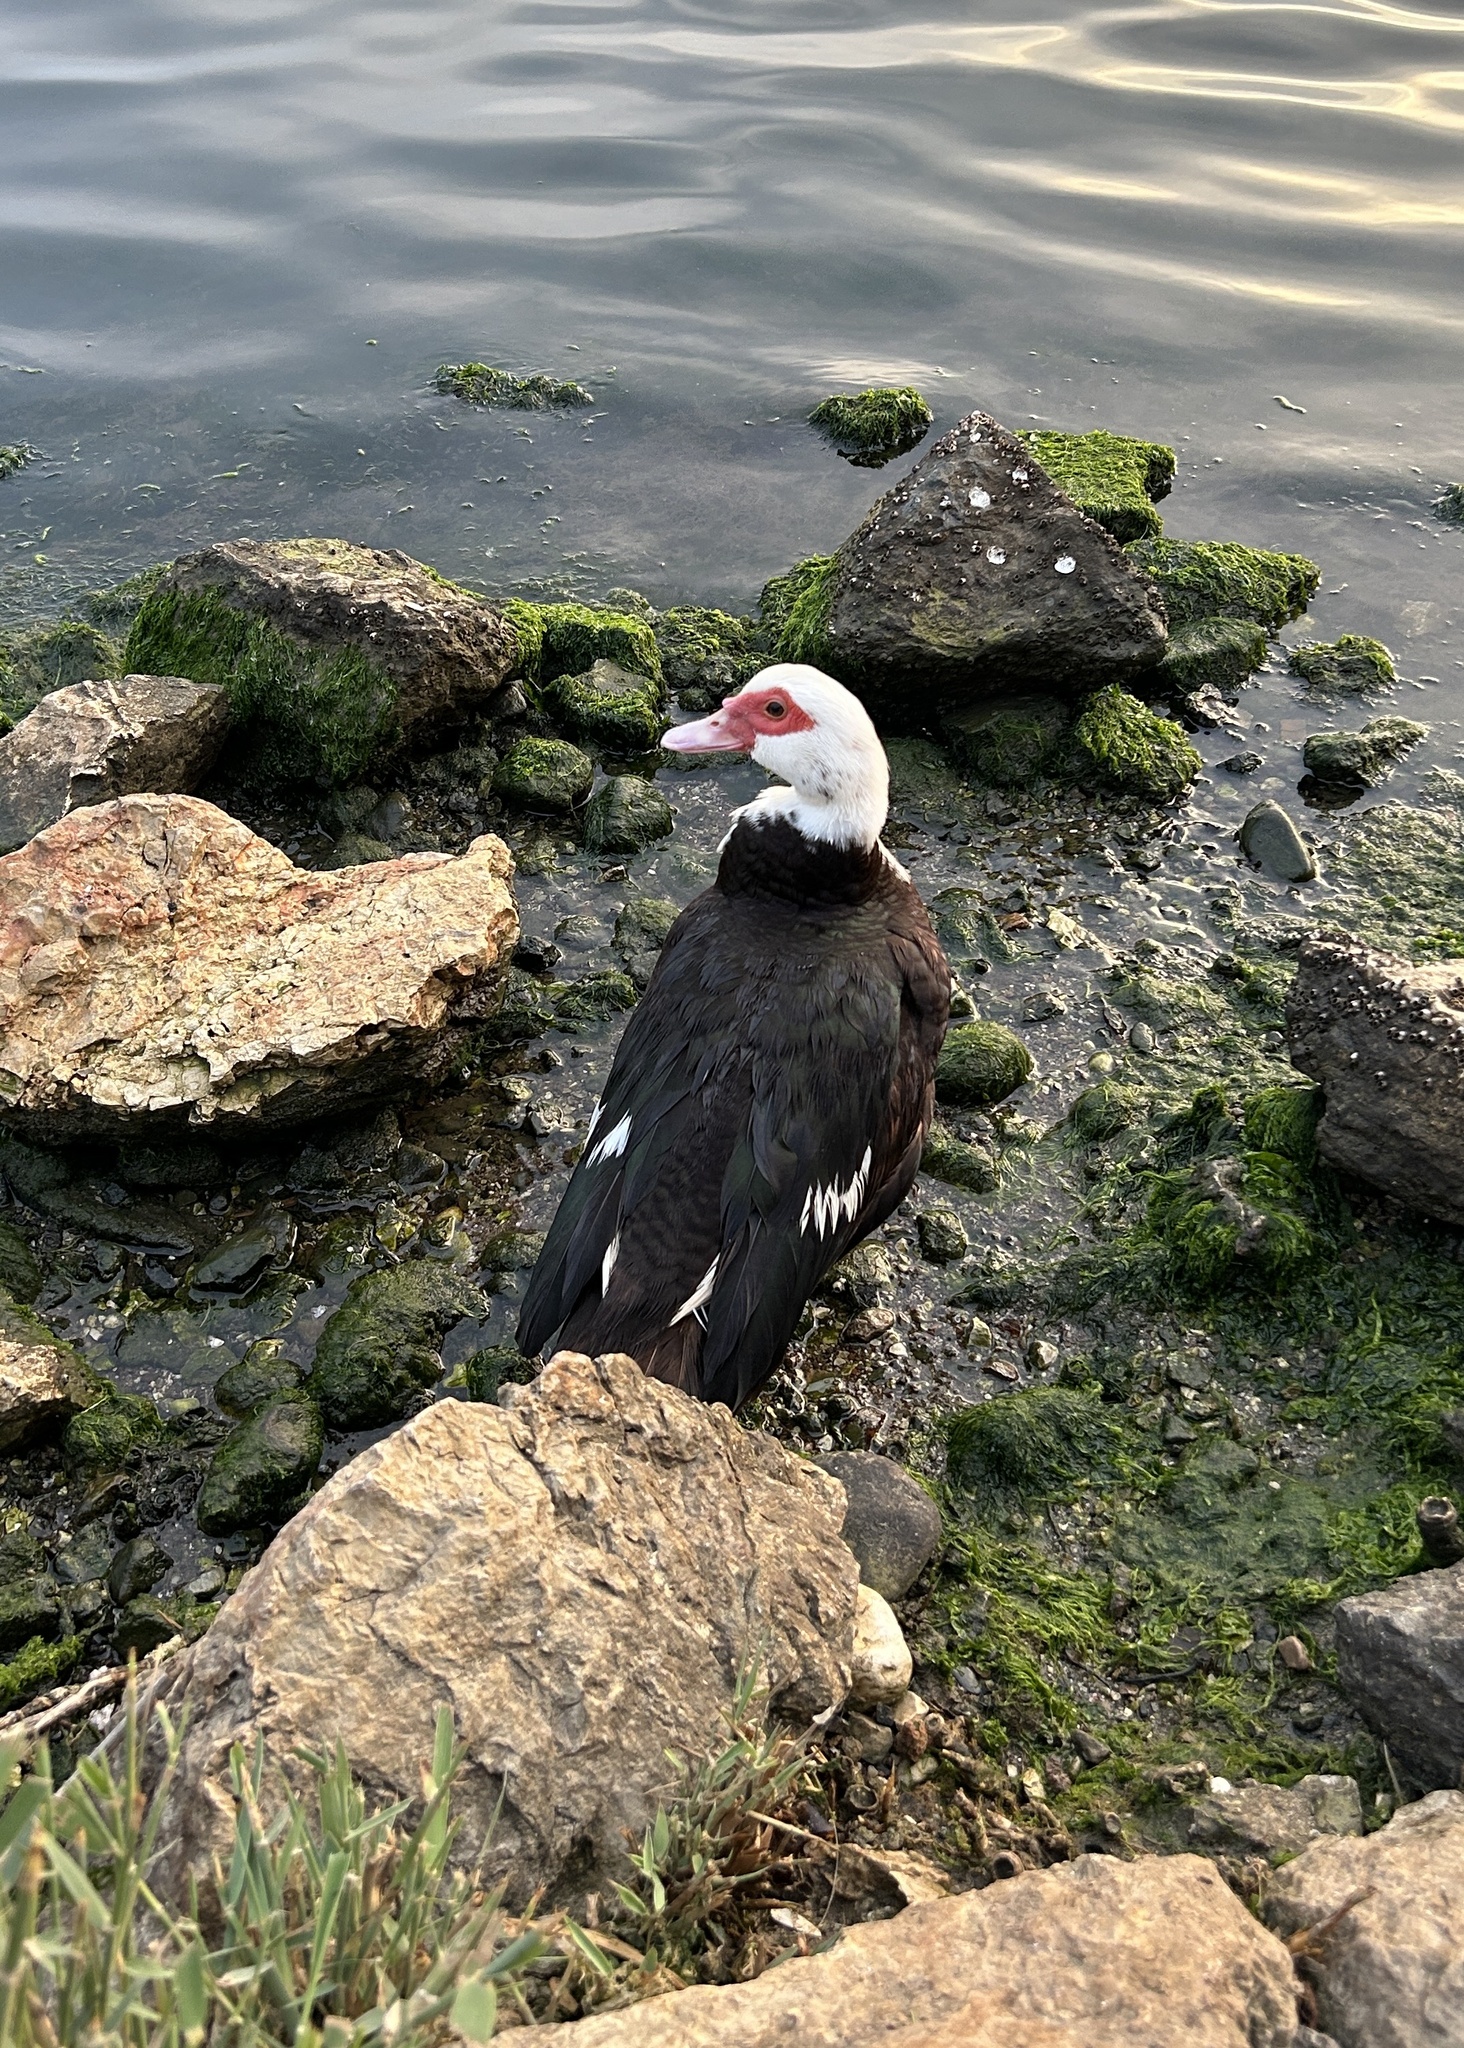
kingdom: Animalia
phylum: Chordata
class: Aves
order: Anseriformes
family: Anatidae
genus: Cairina
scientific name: Cairina moschata
